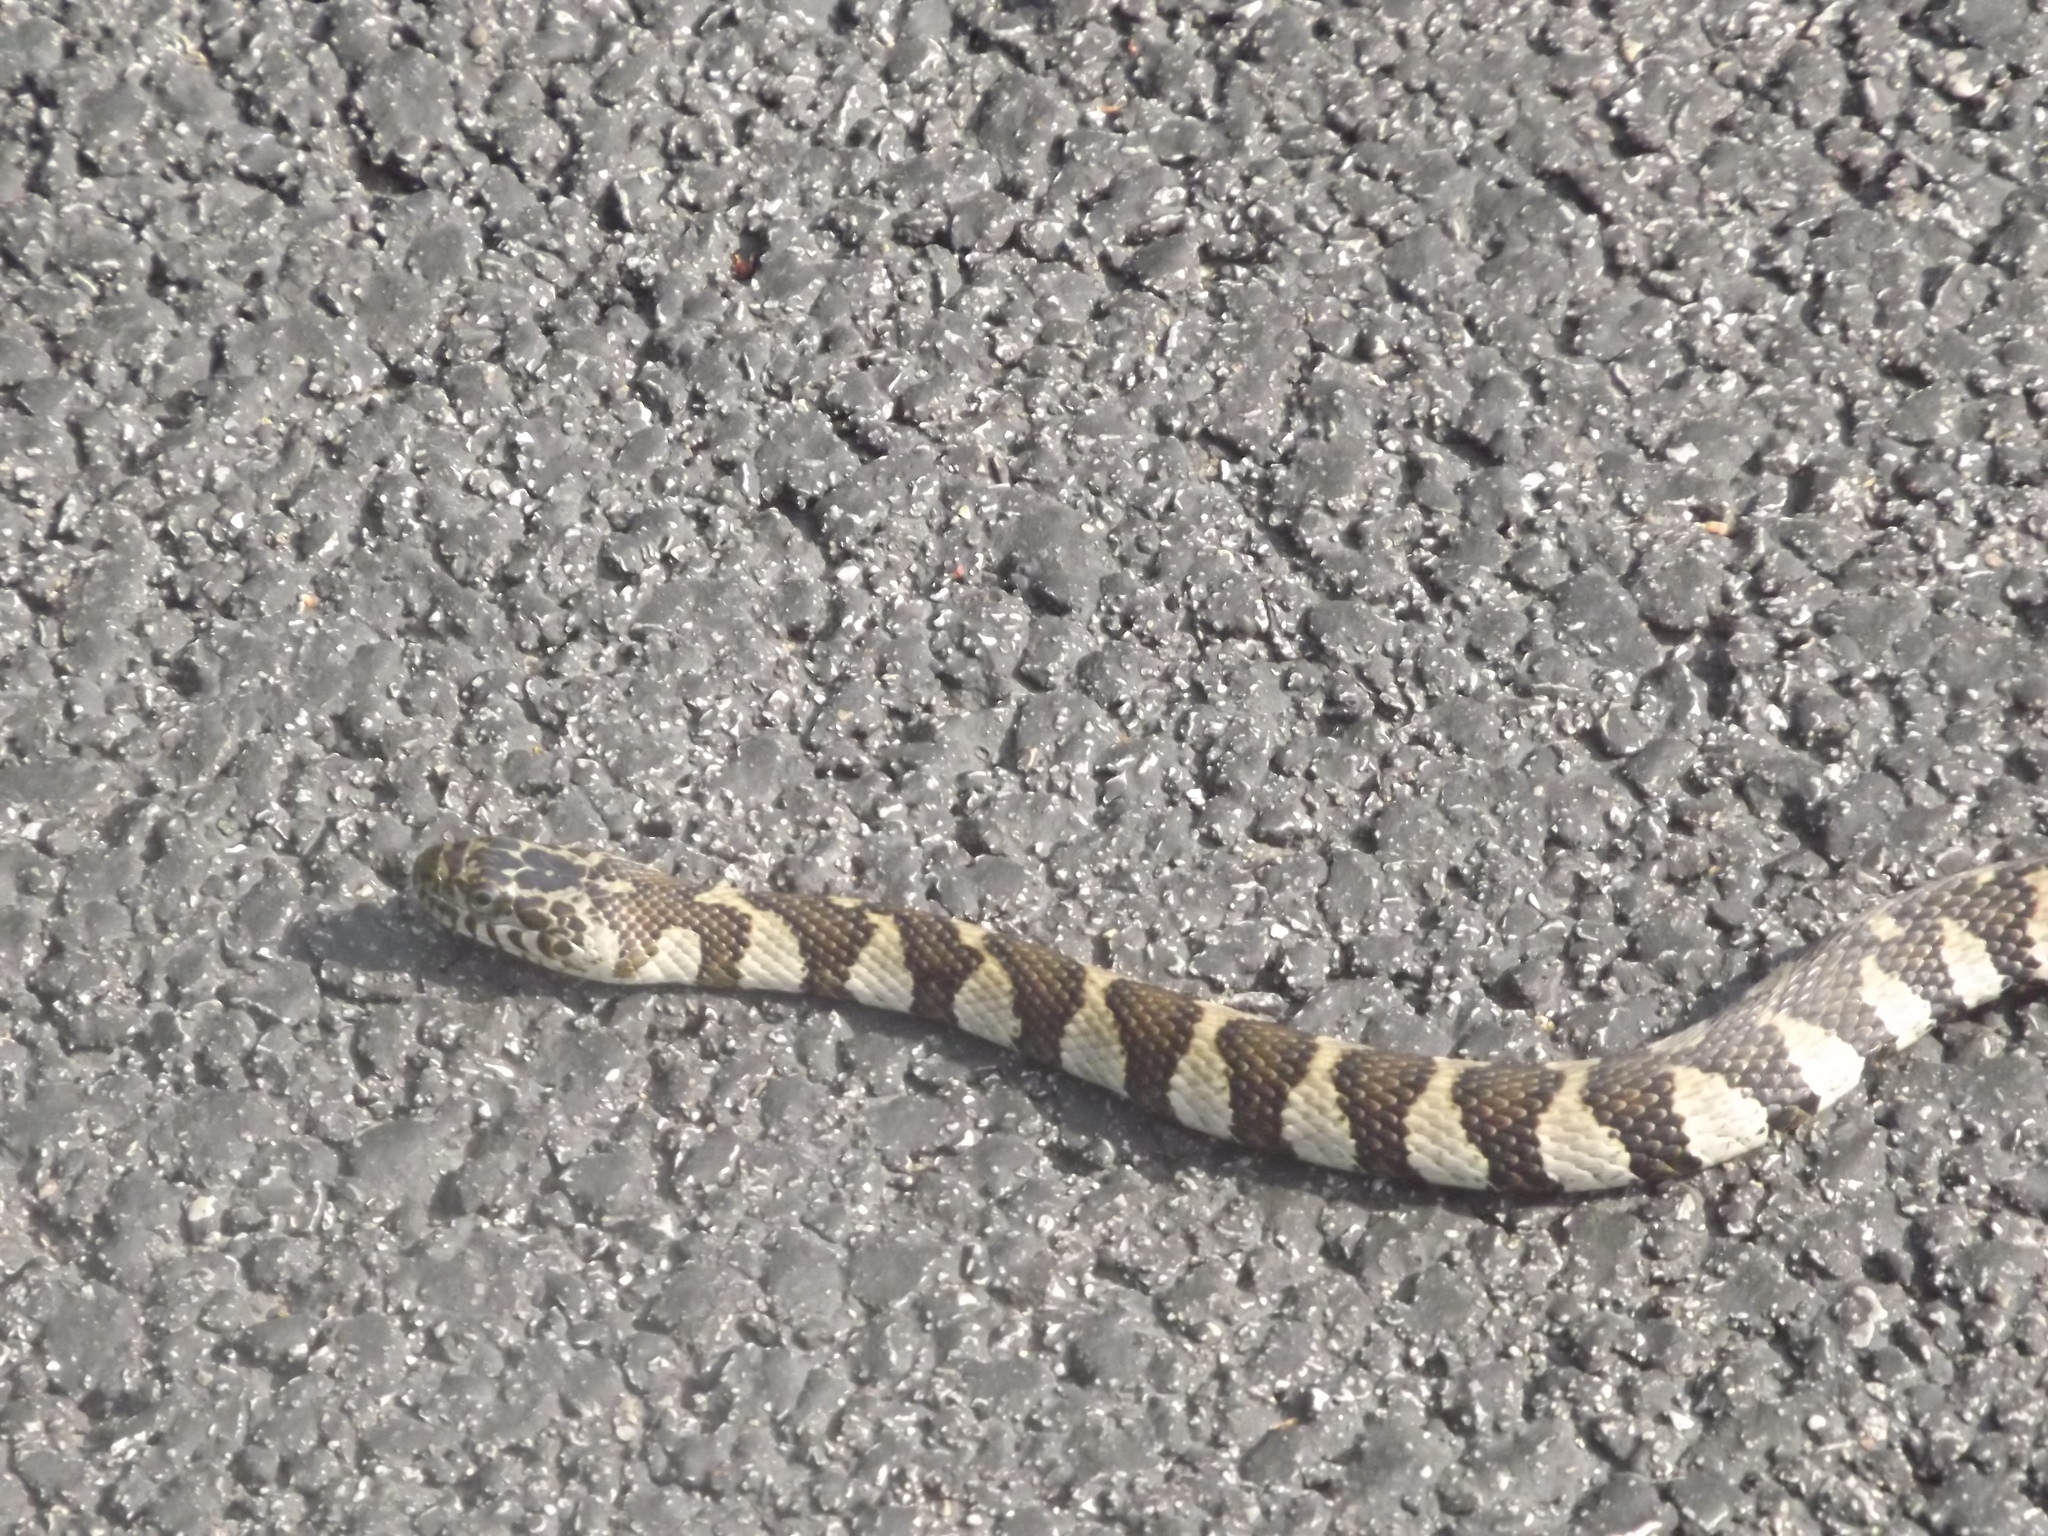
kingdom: Animalia
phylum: Chordata
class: Squamata
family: Colubridae
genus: Nerodia
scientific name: Nerodia sipedon
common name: Northern water snake
